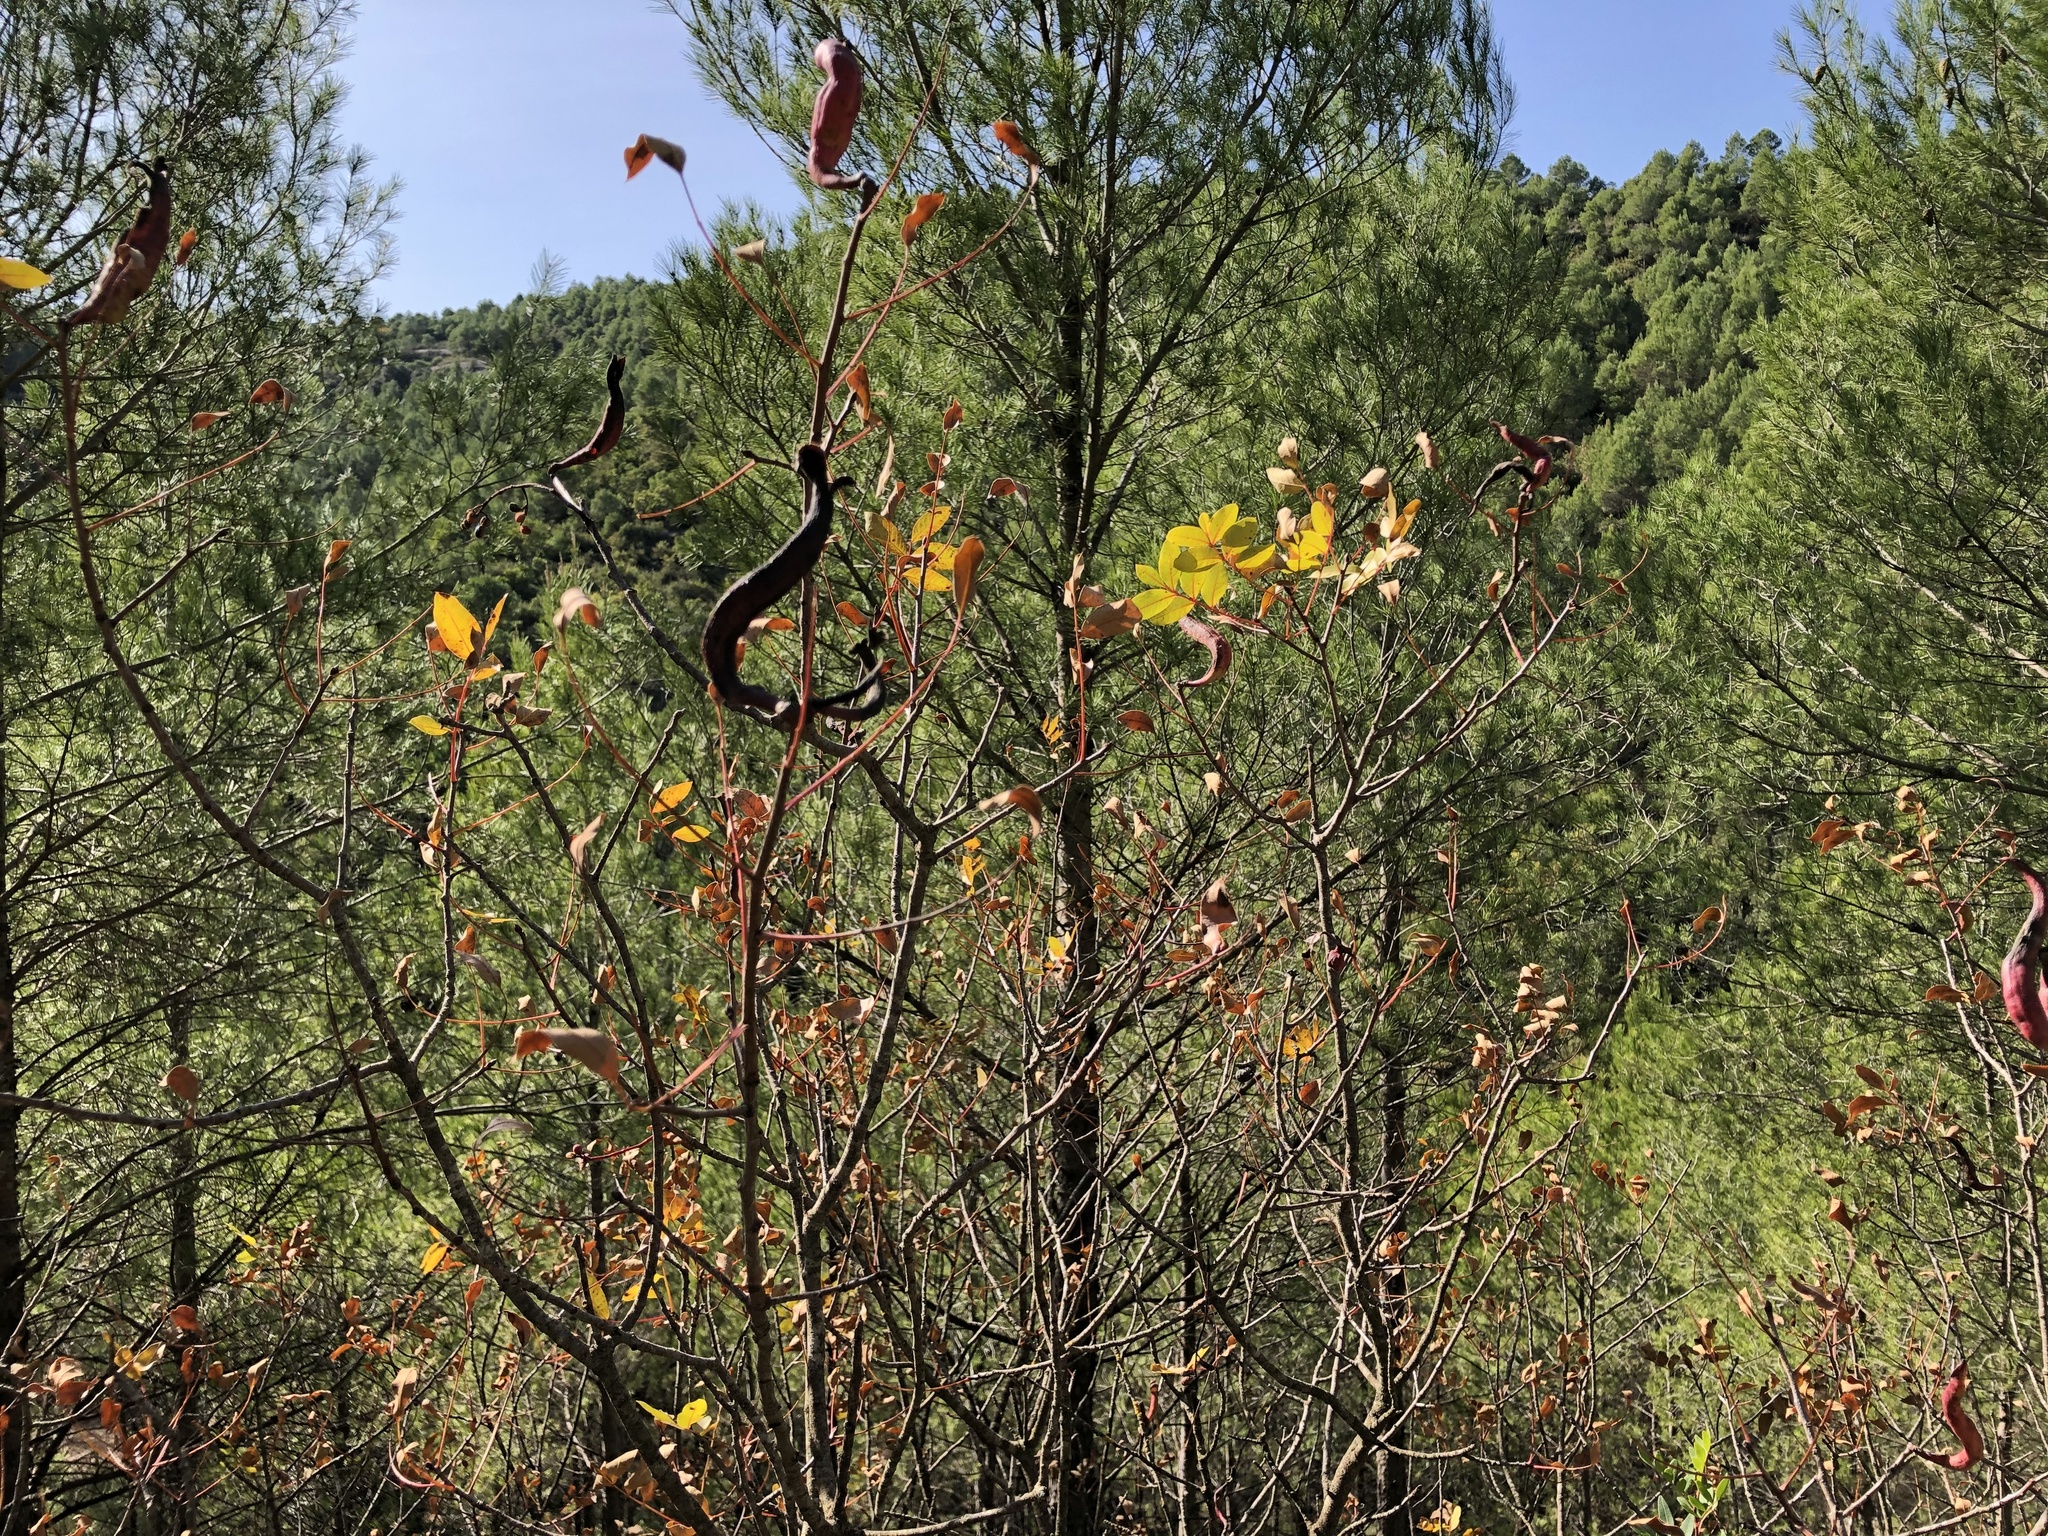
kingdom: Plantae
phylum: Tracheophyta
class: Magnoliopsida
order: Sapindales
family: Anacardiaceae
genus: Pistacia
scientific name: Pistacia terebinthus
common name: Terebinth
